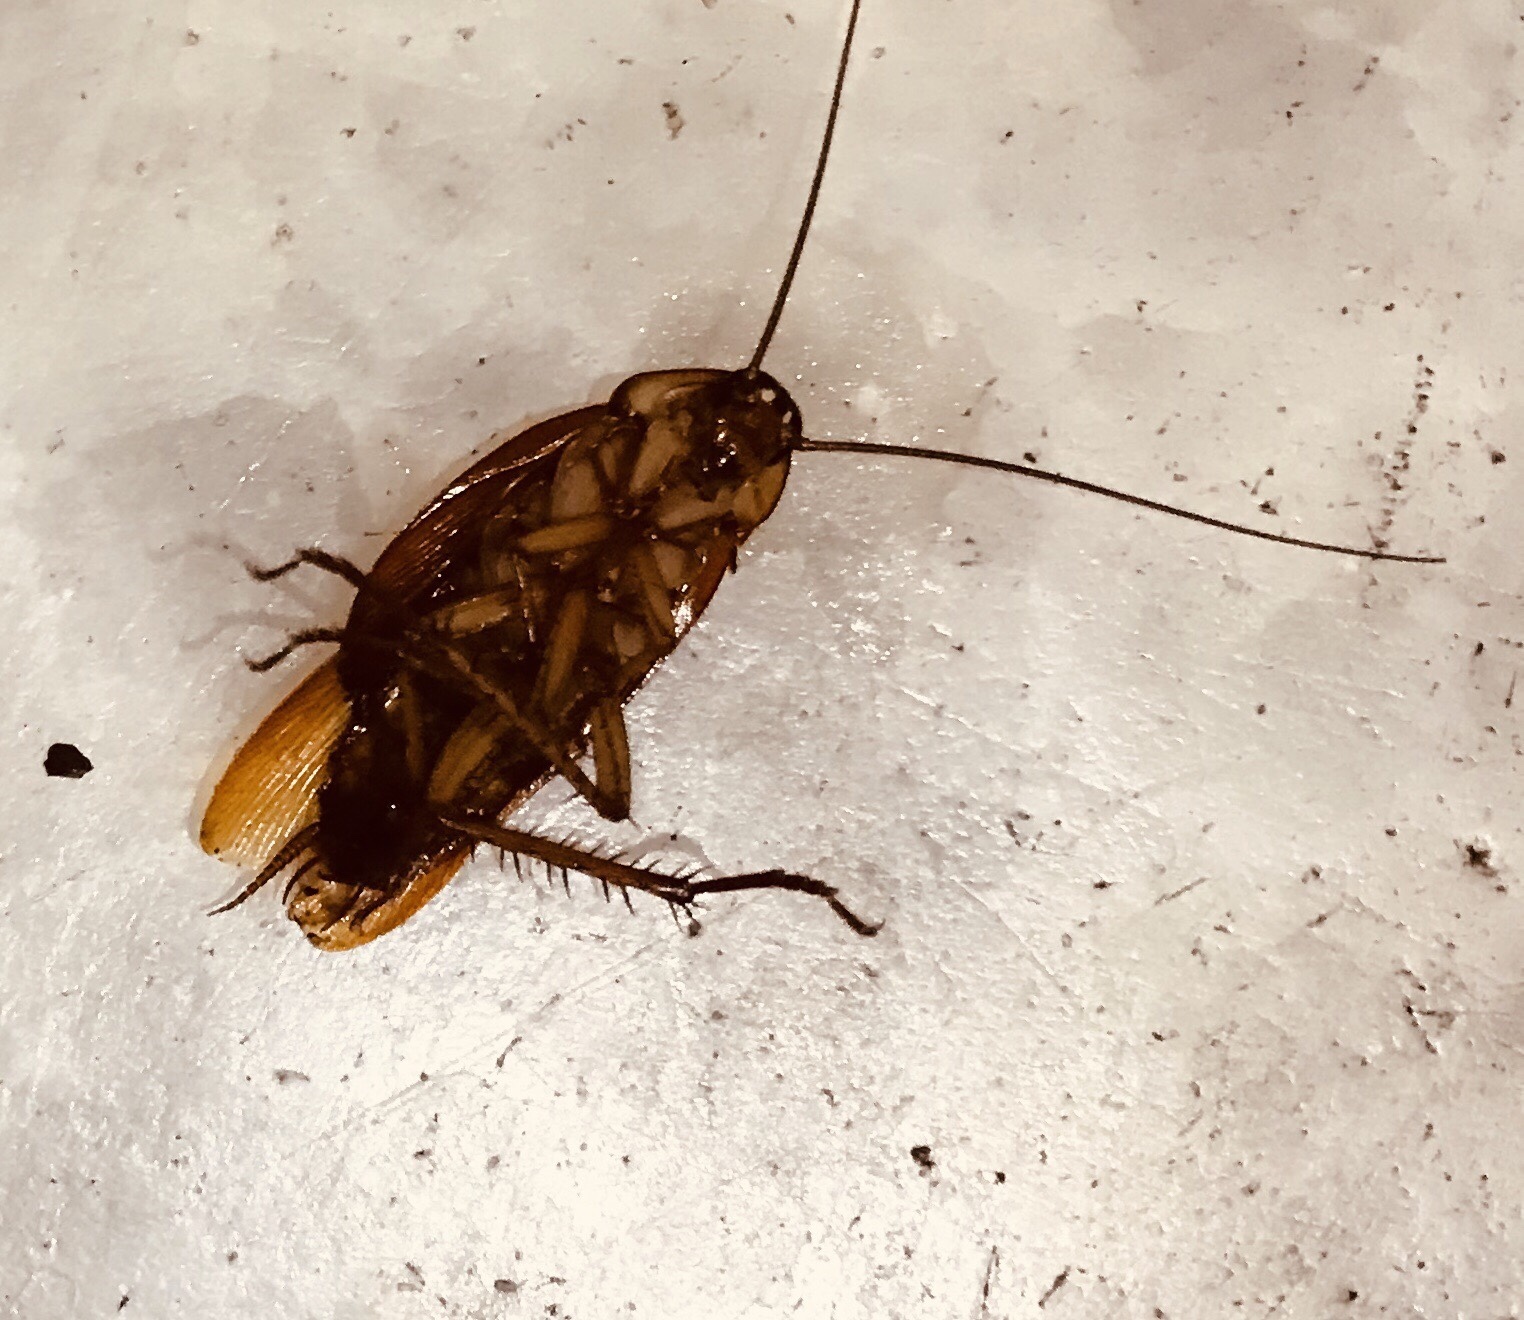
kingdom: Animalia
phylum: Arthropoda
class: Insecta
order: Blattodea
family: Blattidae
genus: Periplaneta
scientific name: Periplaneta americana
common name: American cockroach
